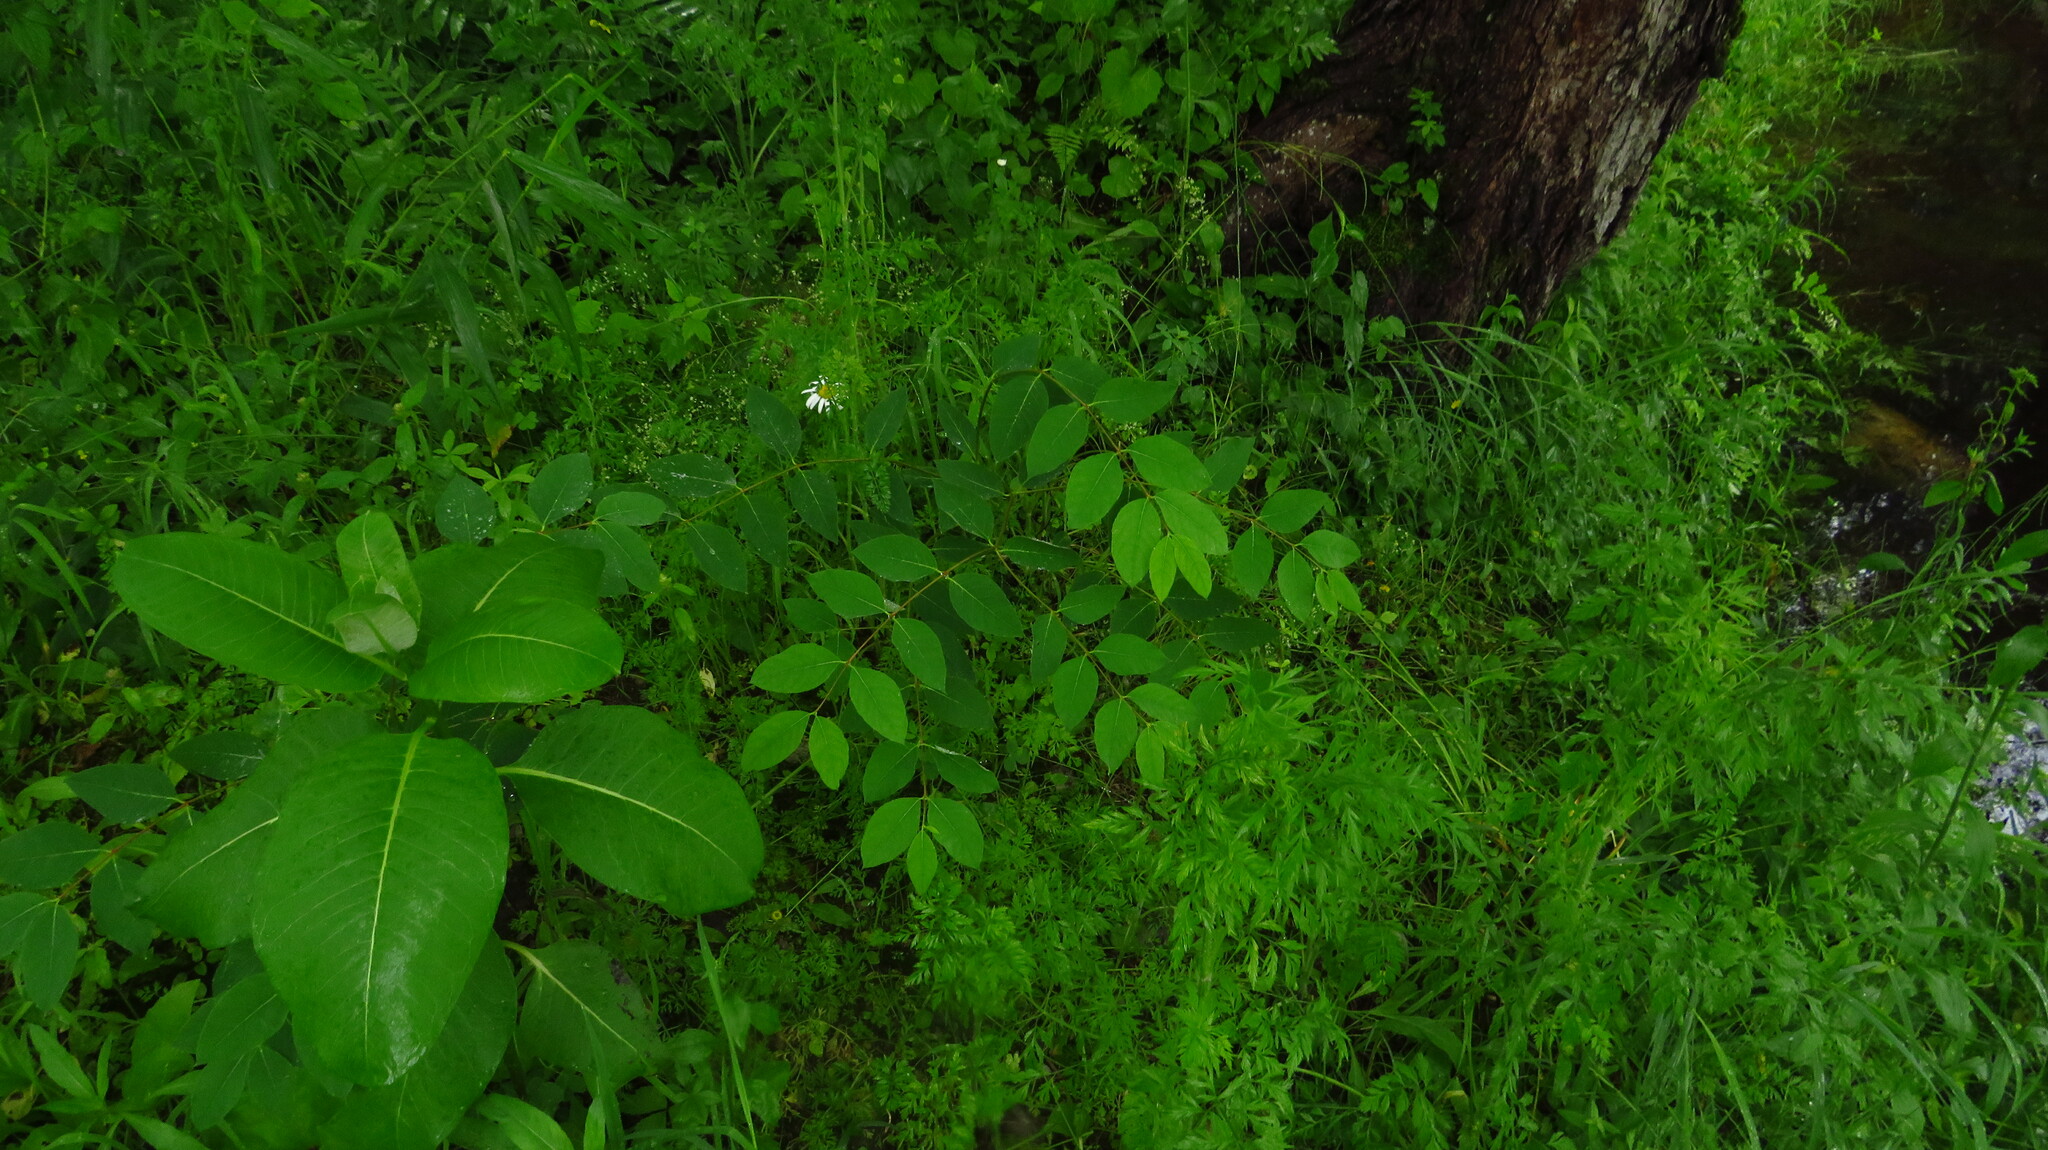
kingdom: Plantae
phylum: Tracheophyta
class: Magnoliopsida
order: Gentianales
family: Apocynaceae
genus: Apocynum
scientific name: Apocynum androsaemifolium
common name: Spreading dogbane
